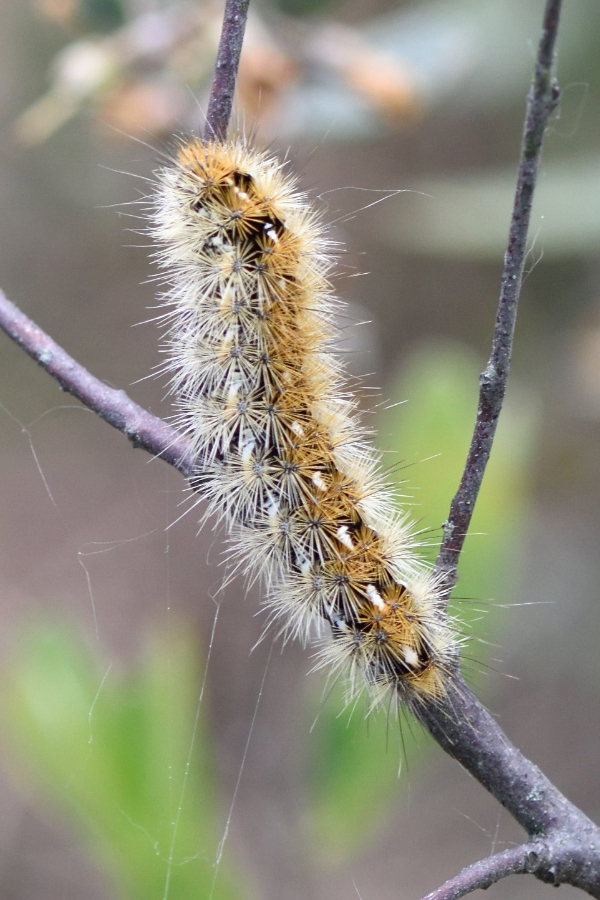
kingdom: Animalia
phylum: Arthropoda
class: Insecta
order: Lepidoptera
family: Erebidae
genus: Rhyparia
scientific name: Rhyparia purpurata
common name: Purple tiger
